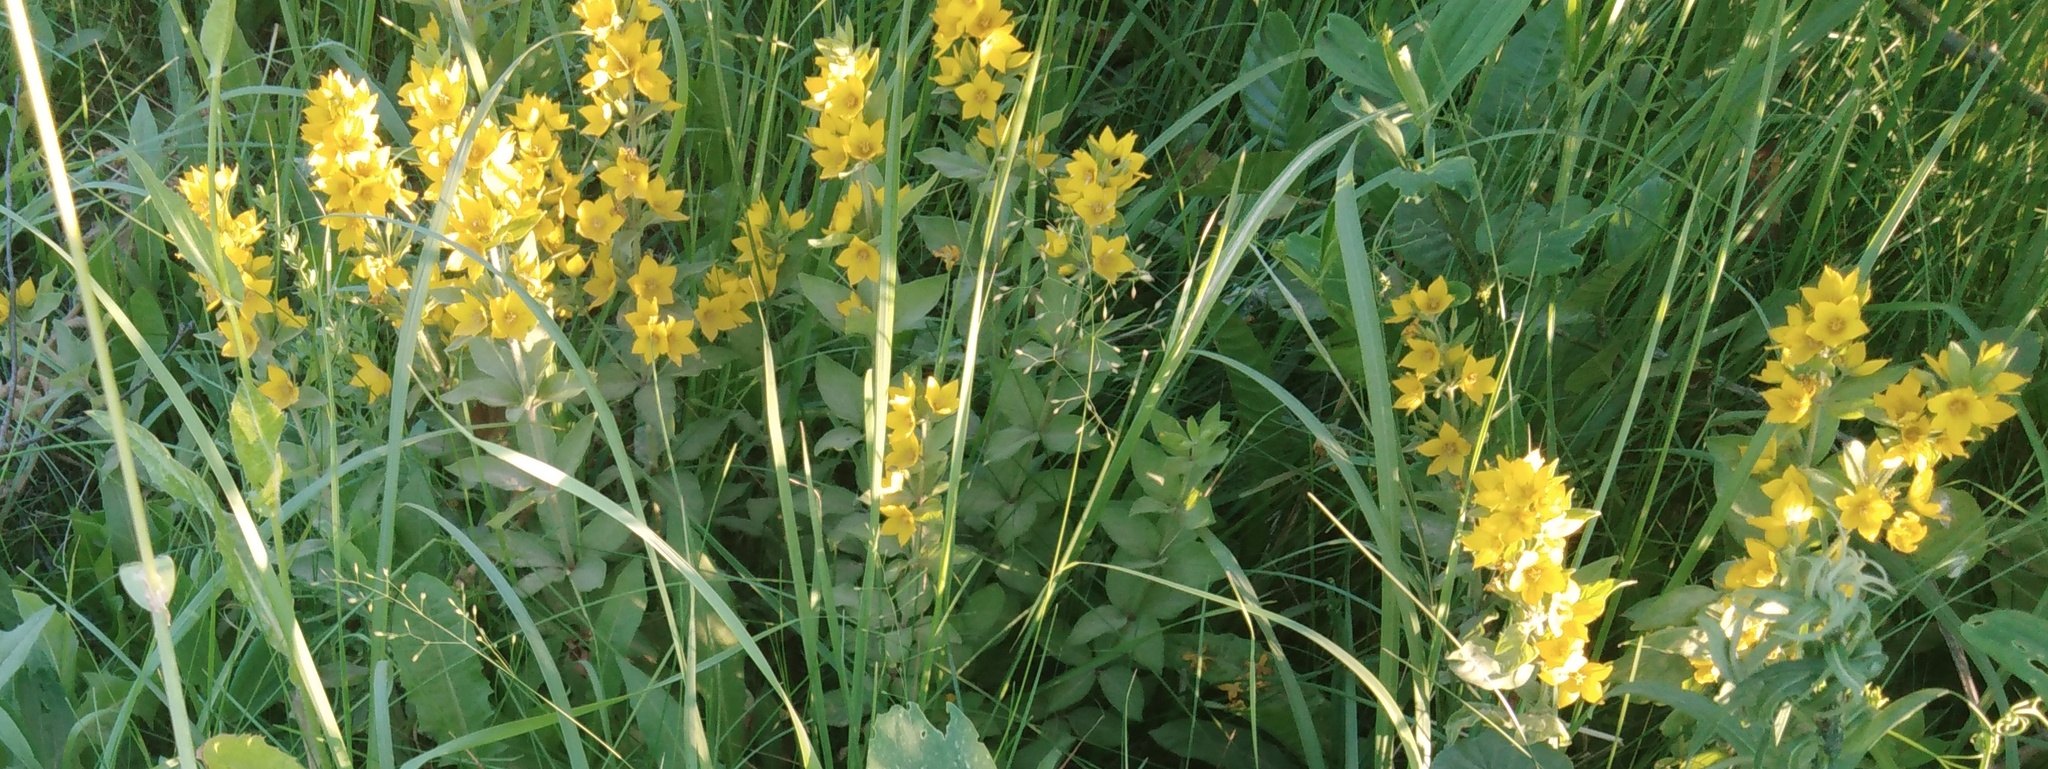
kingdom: Plantae
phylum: Tracheophyta
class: Magnoliopsida
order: Ericales
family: Primulaceae
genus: Lysimachia
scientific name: Lysimachia punctata
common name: Dotted loosestrife
